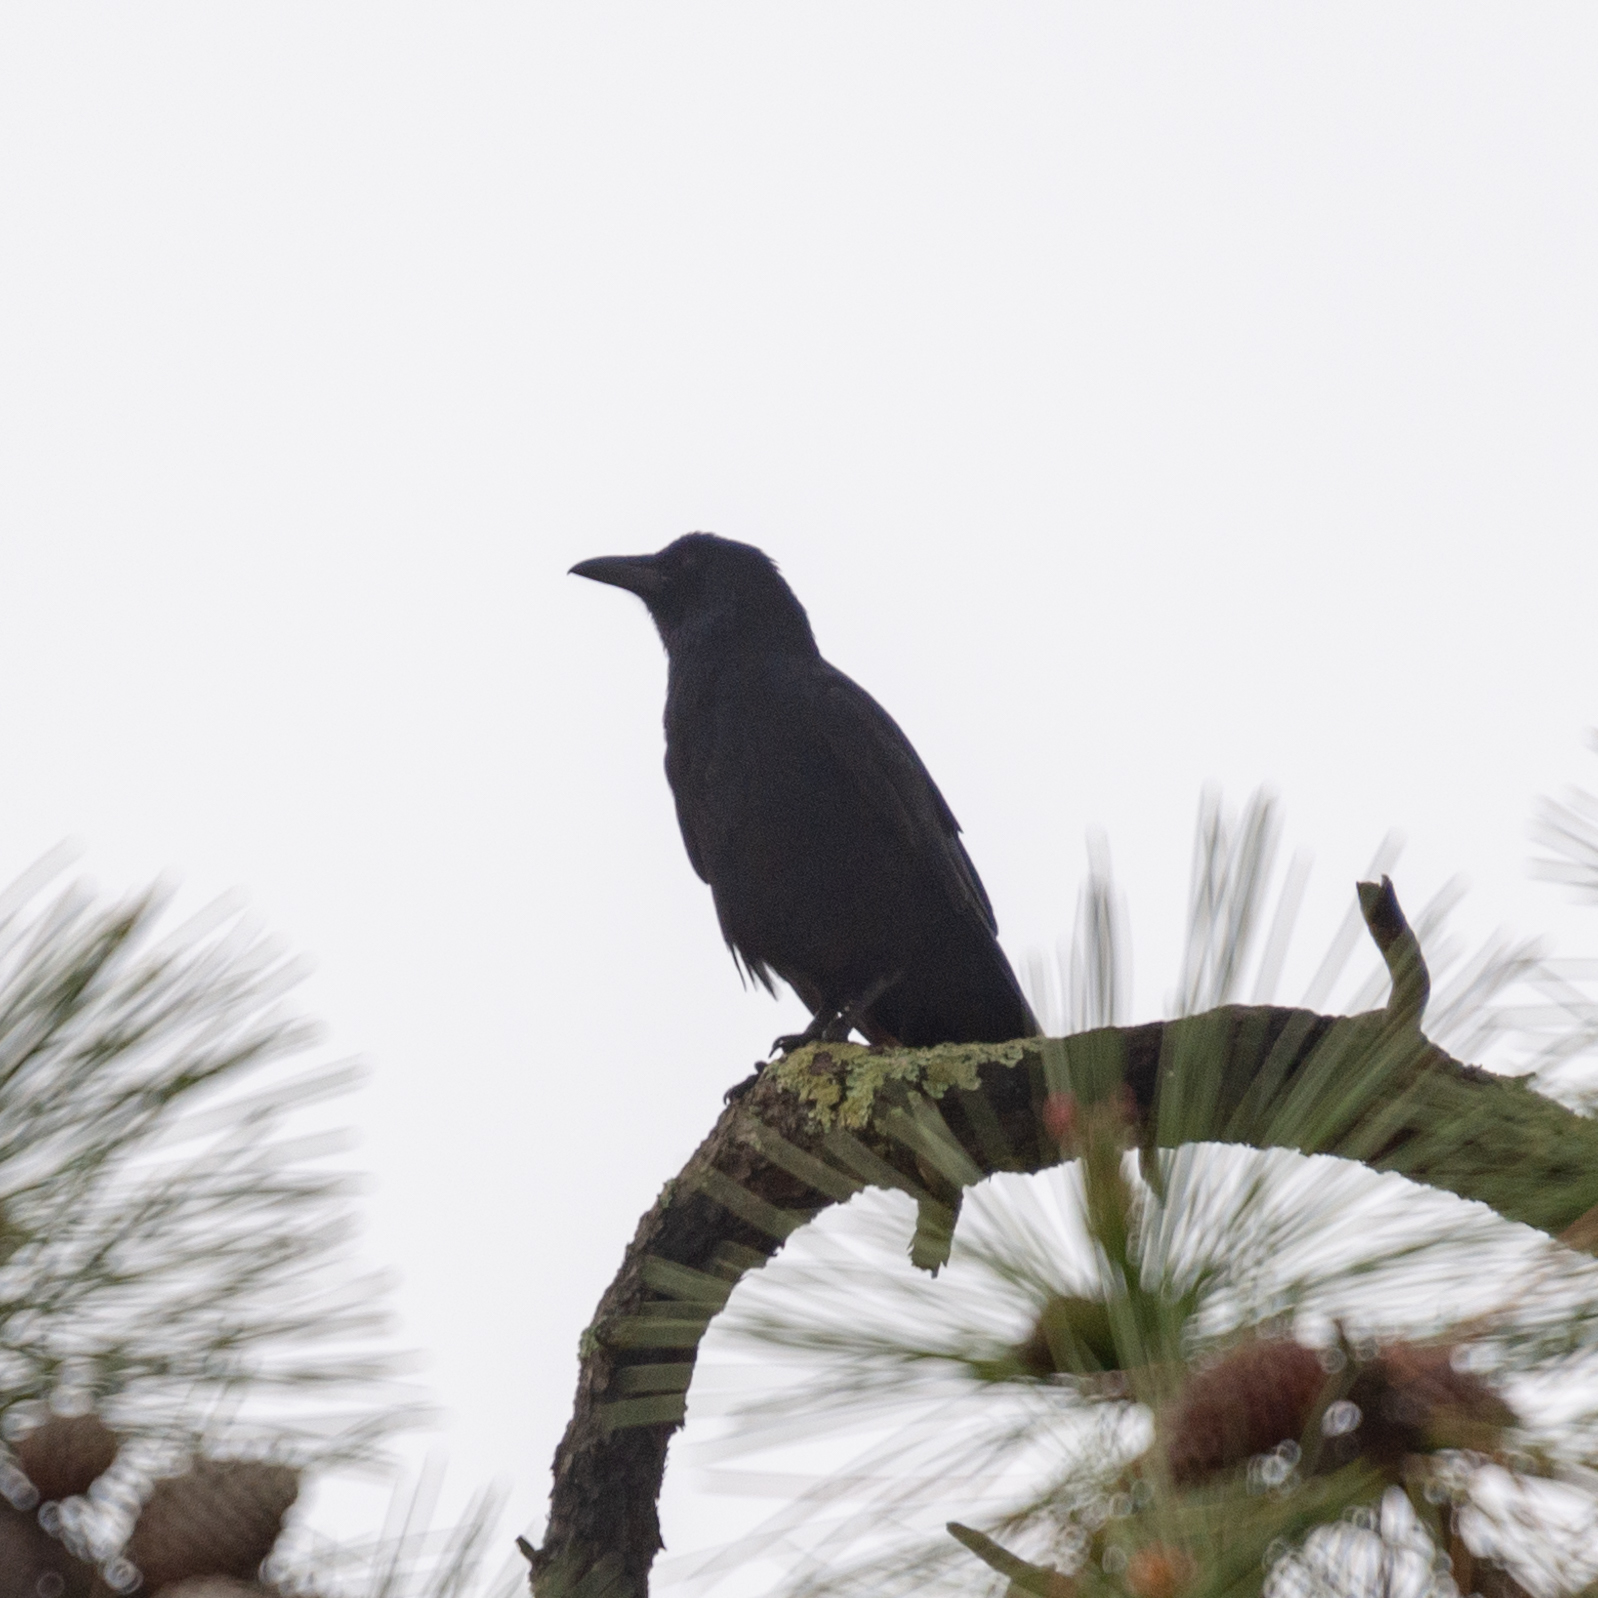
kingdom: Animalia
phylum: Chordata
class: Aves
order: Passeriformes
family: Corvidae
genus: Corvus
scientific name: Corvus corone
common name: Carrion crow
